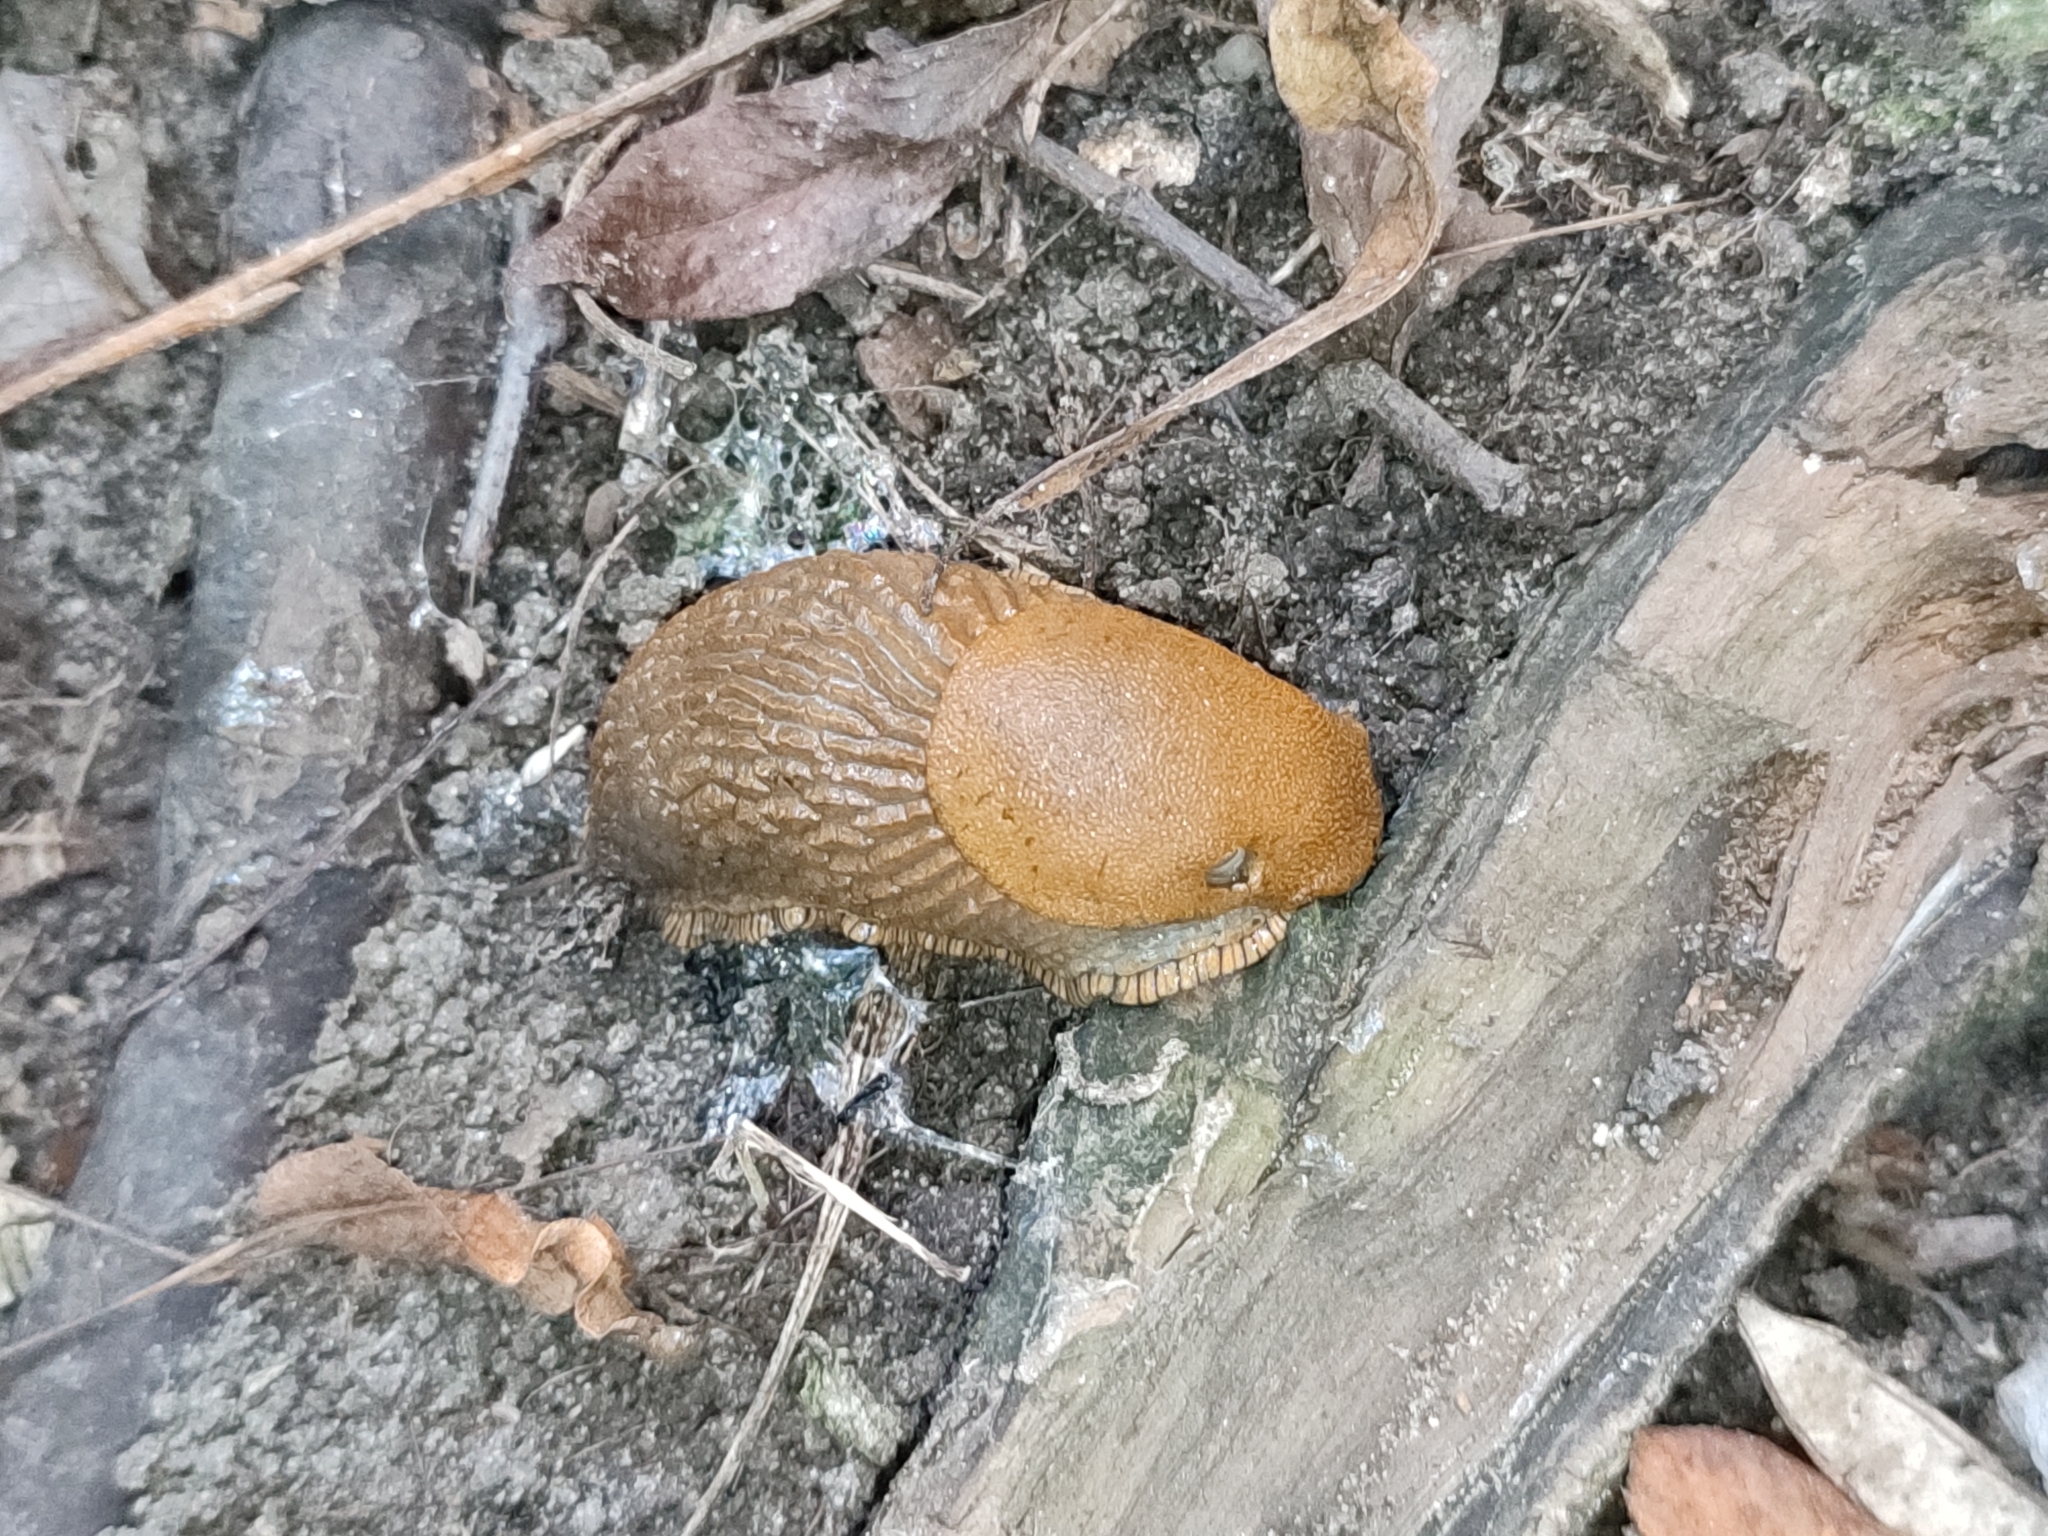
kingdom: Animalia
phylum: Mollusca
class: Gastropoda
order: Stylommatophora
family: Arionidae
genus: Arion
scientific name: Arion vulgaris
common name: Lusitanian slug
